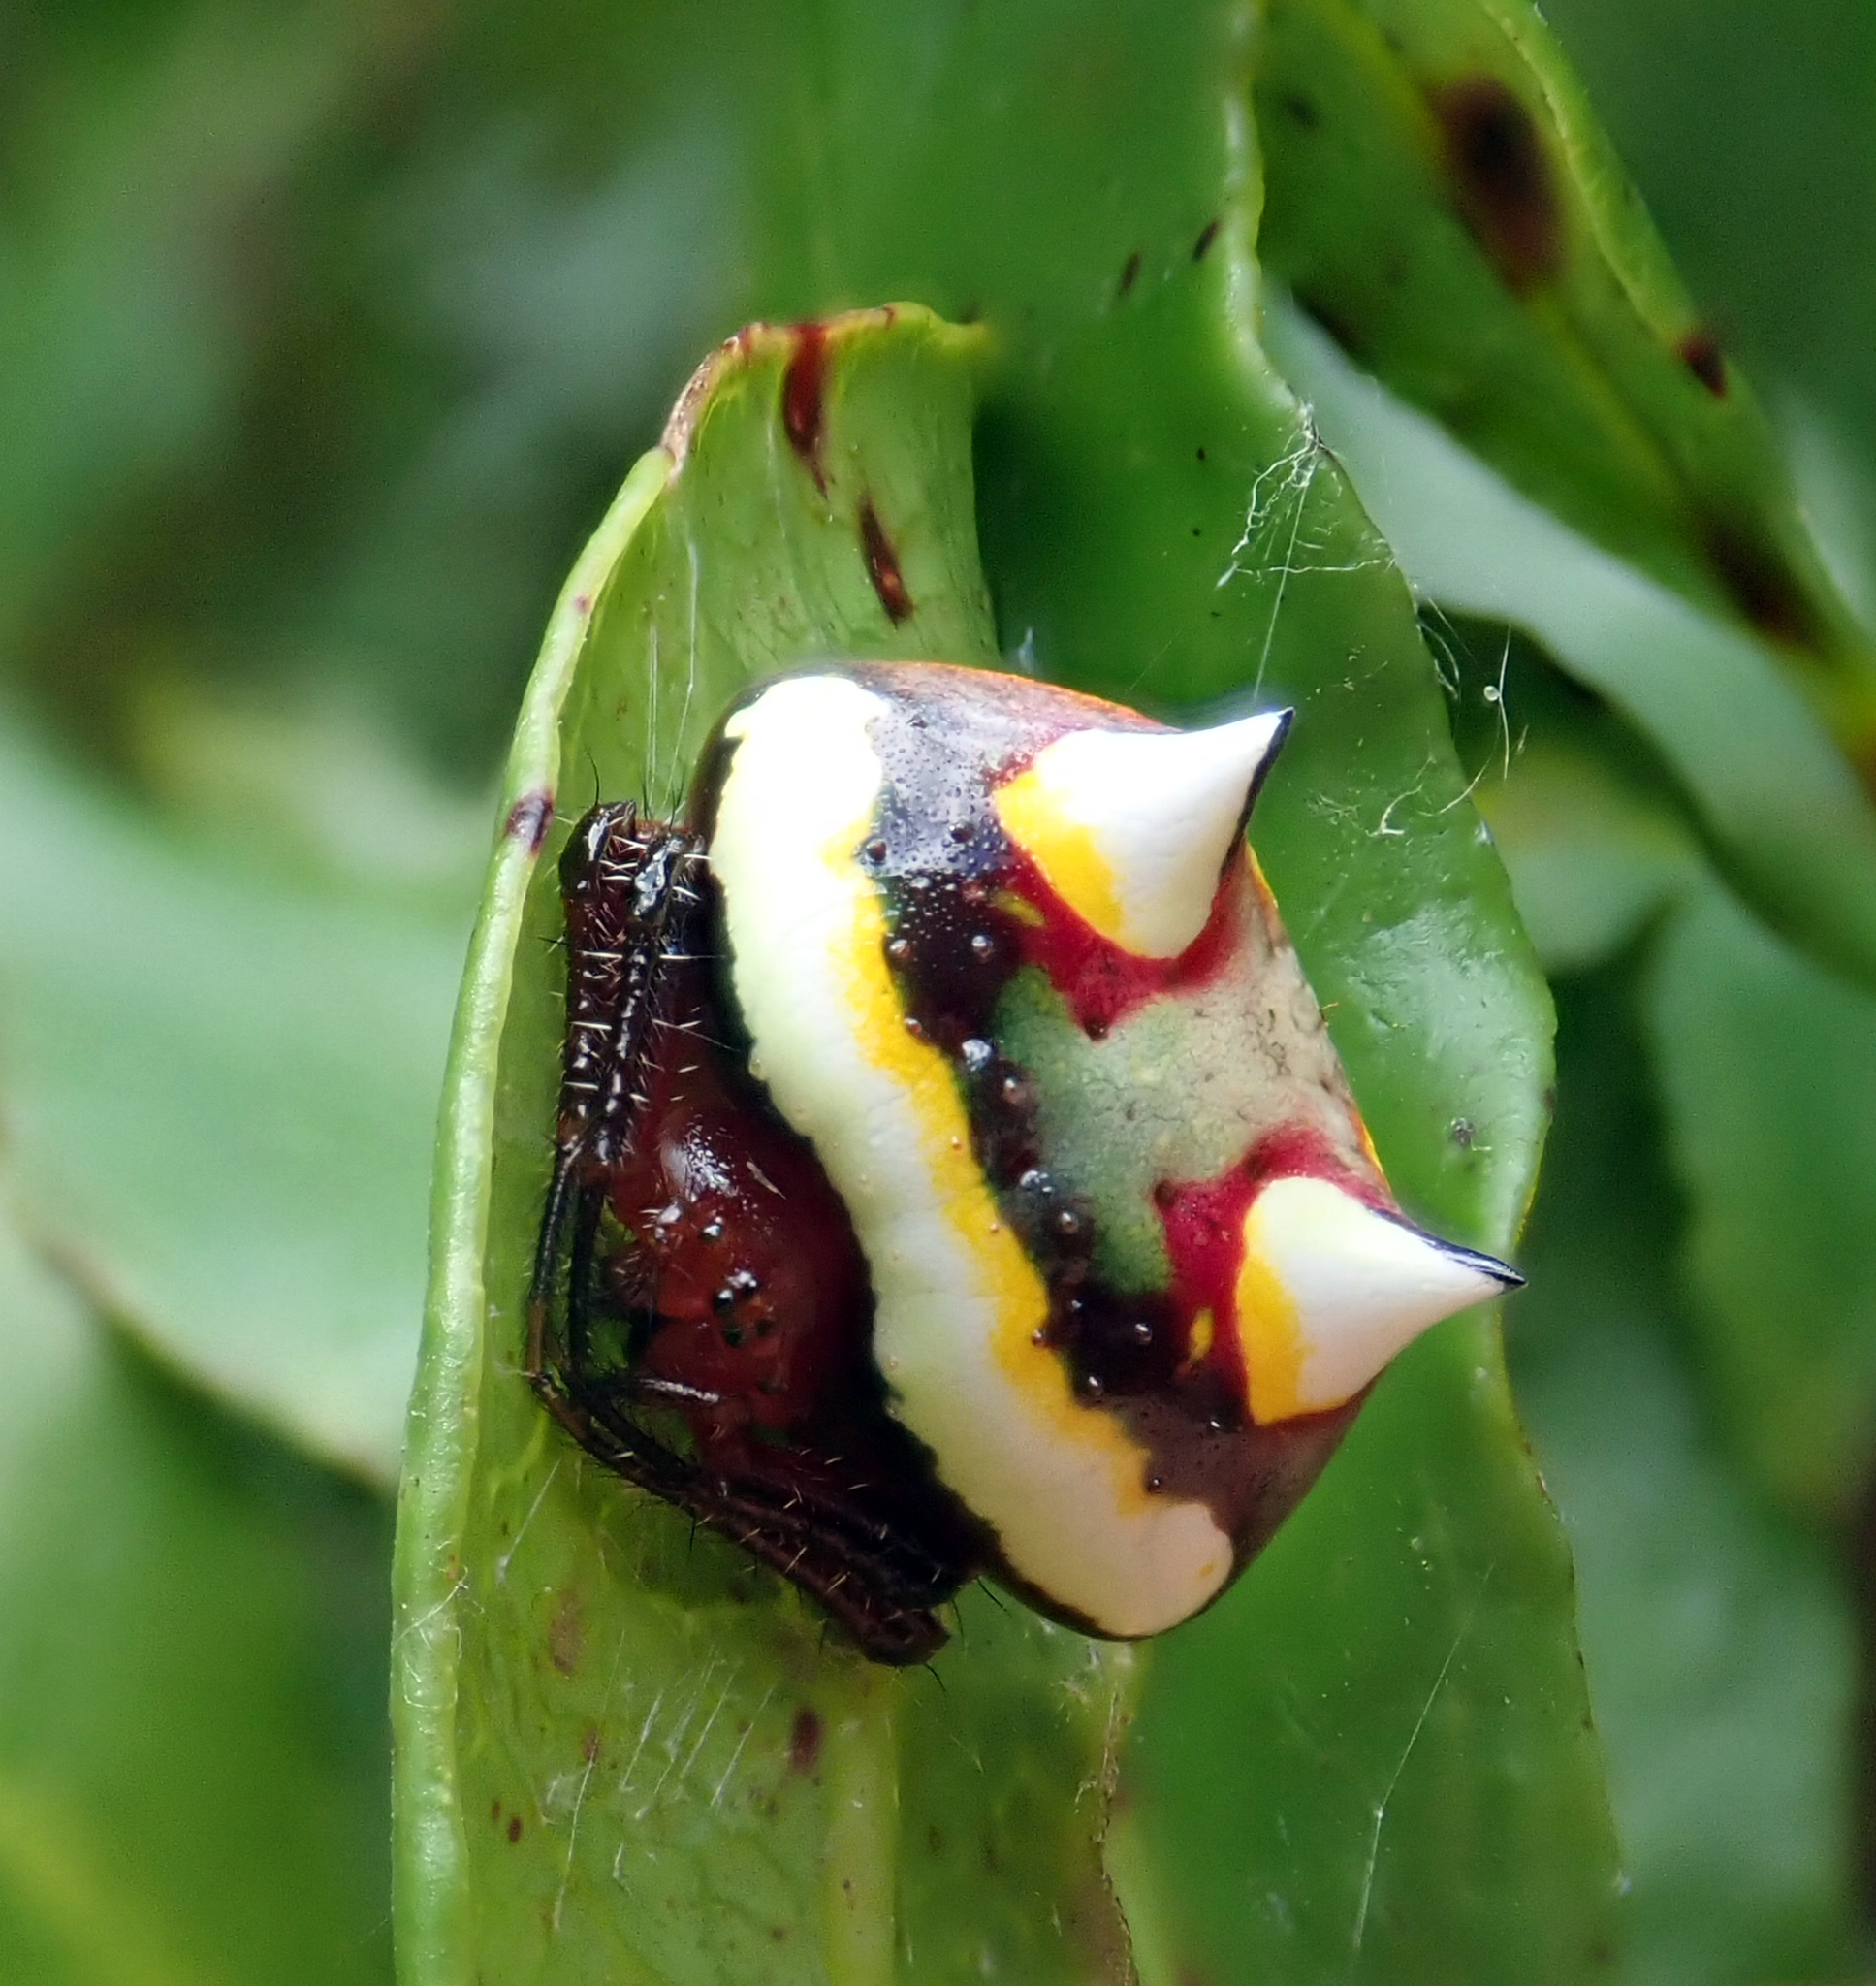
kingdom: Animalia
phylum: Arthropoda
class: Arachnida
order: Araneae
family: Araneidae
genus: Poecilopachys
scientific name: Poecilopachys australasia
